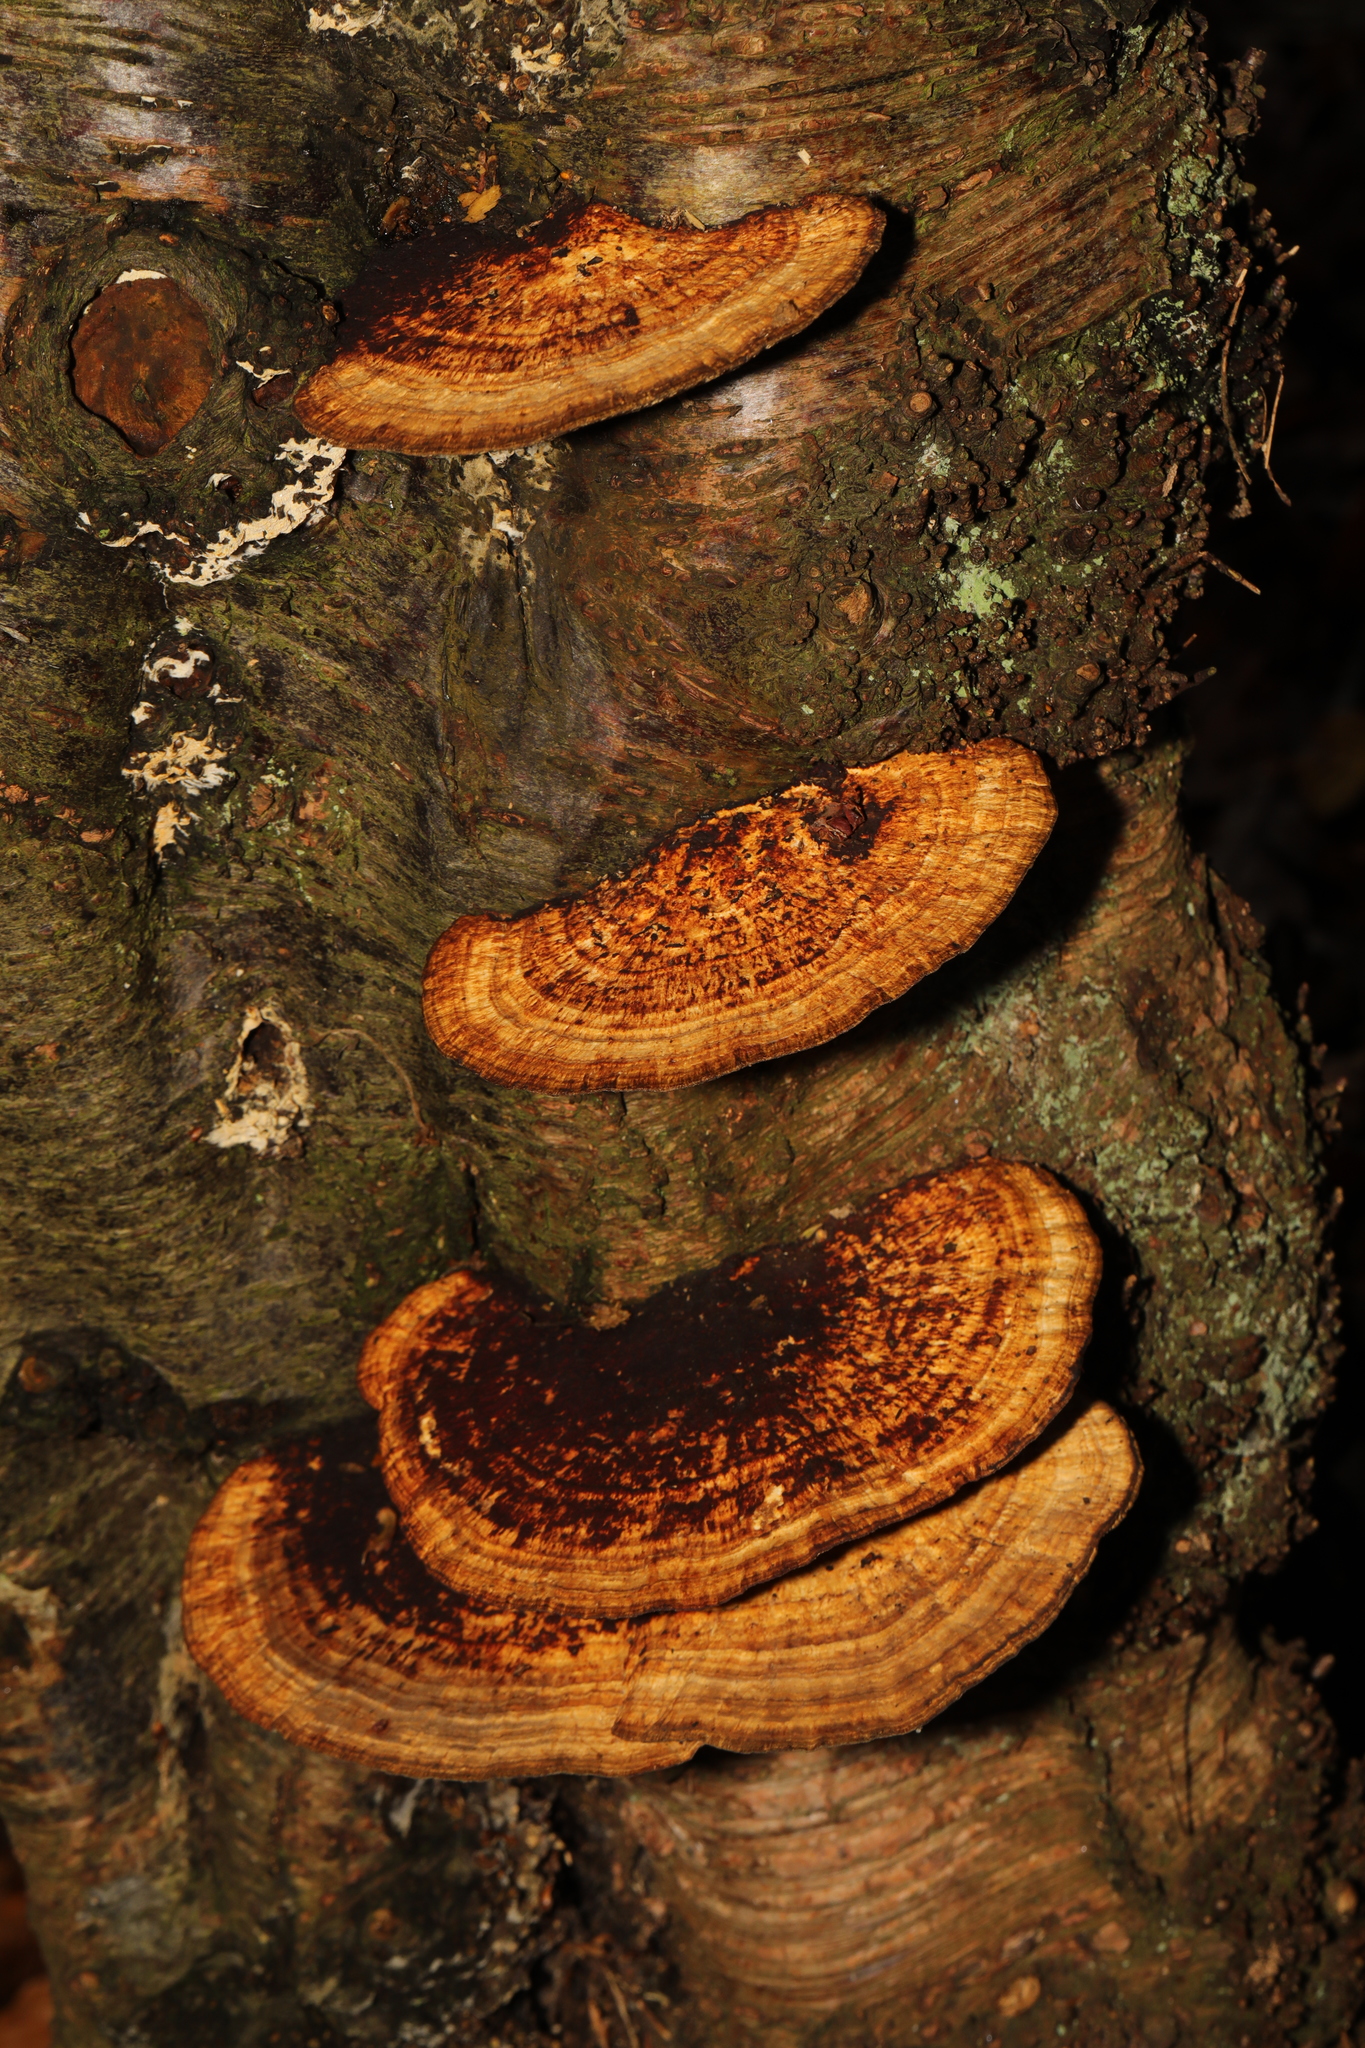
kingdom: Fungi
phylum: Basidiomycota
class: Agaricomycetes
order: Polyporales
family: Polyporaceae
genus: Daedaleopsis
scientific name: Daedaleopsis confragosa
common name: Blushing bracket
